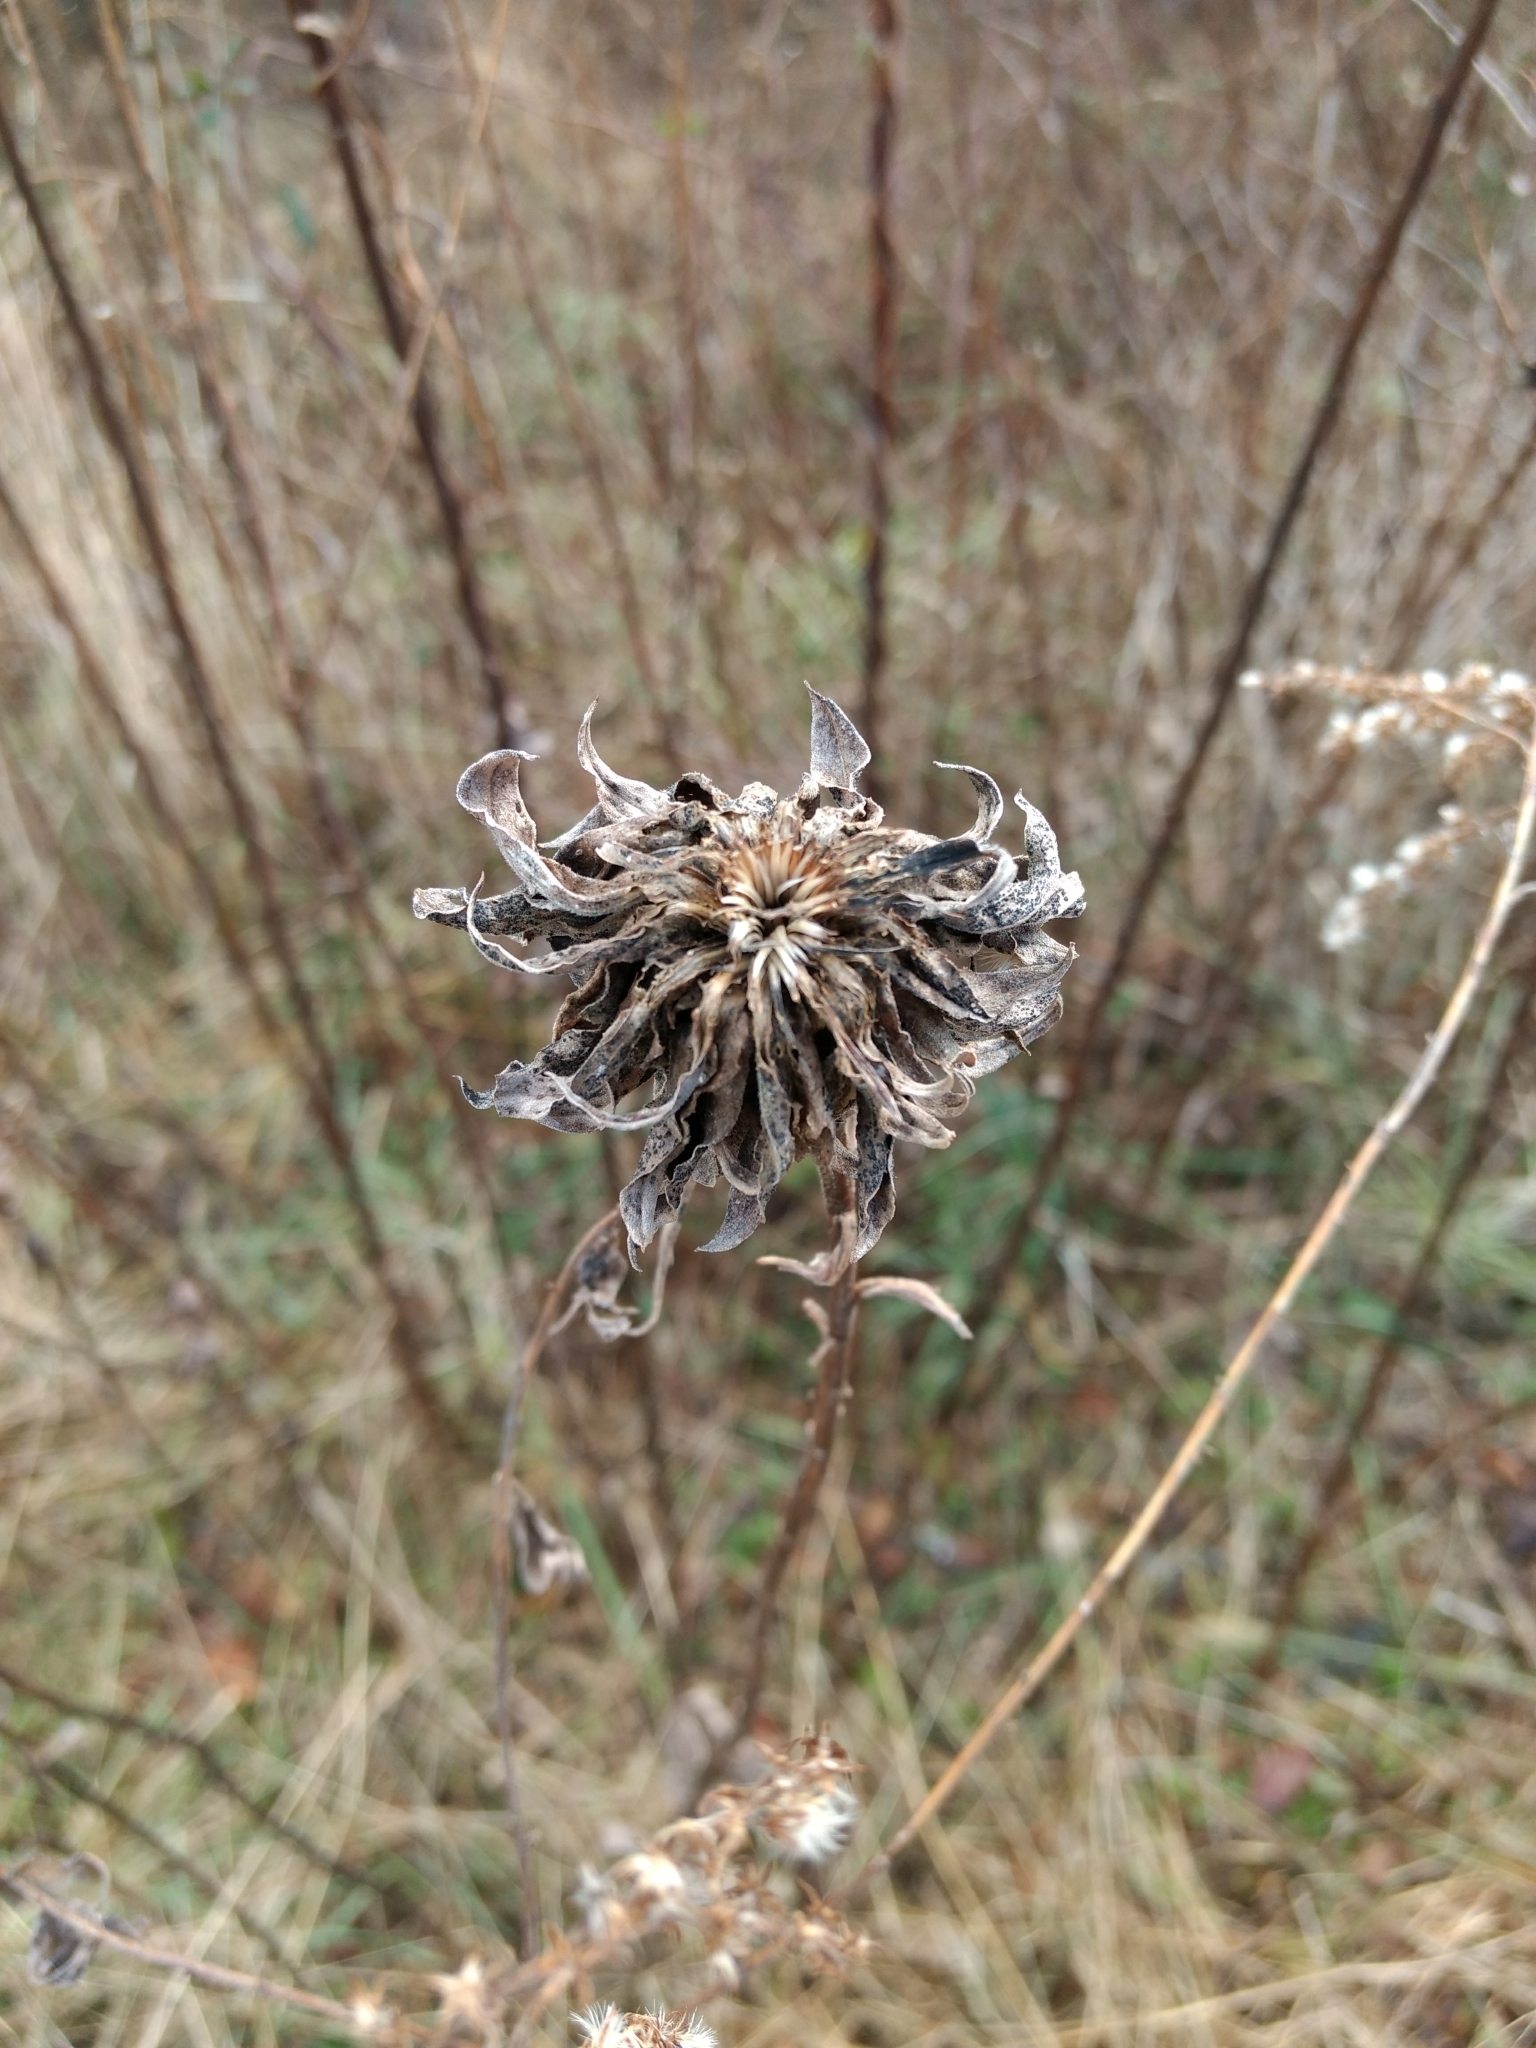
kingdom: Animalia
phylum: Arthropoda
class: Insecta
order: Diptera
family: Cecidomyiidae
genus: Rhopalomyia
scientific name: Rhopalomyia solidaginis
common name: Goldenrod bunch gall midge
